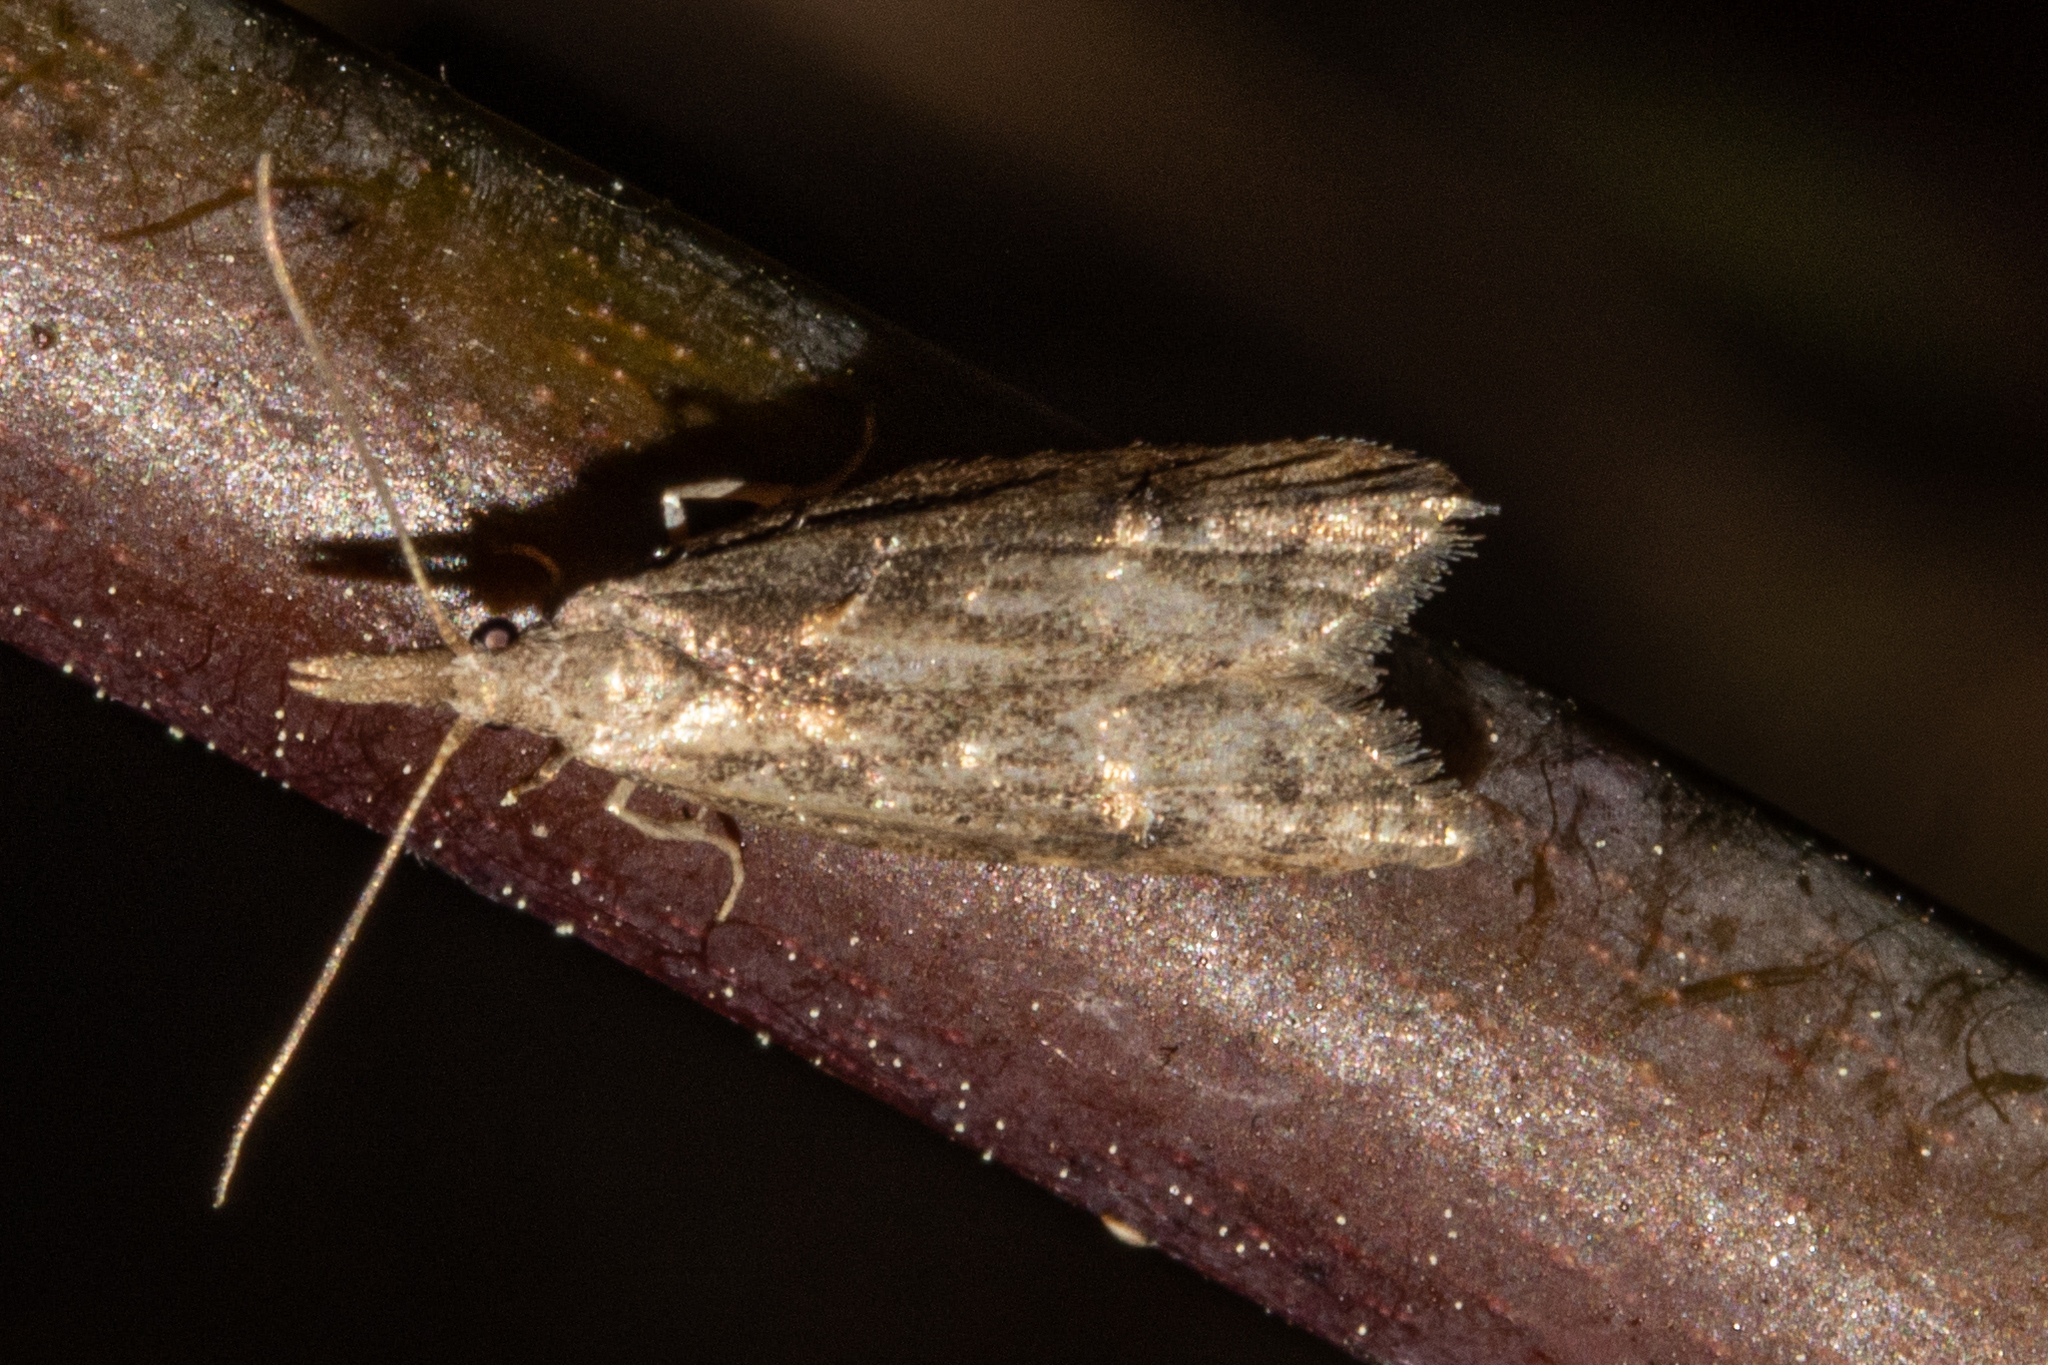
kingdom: Animalia
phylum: Arthropoda
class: Insecta
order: Lepidoptera
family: Carposinidae
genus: Carposina
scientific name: Carposina rubophaga
